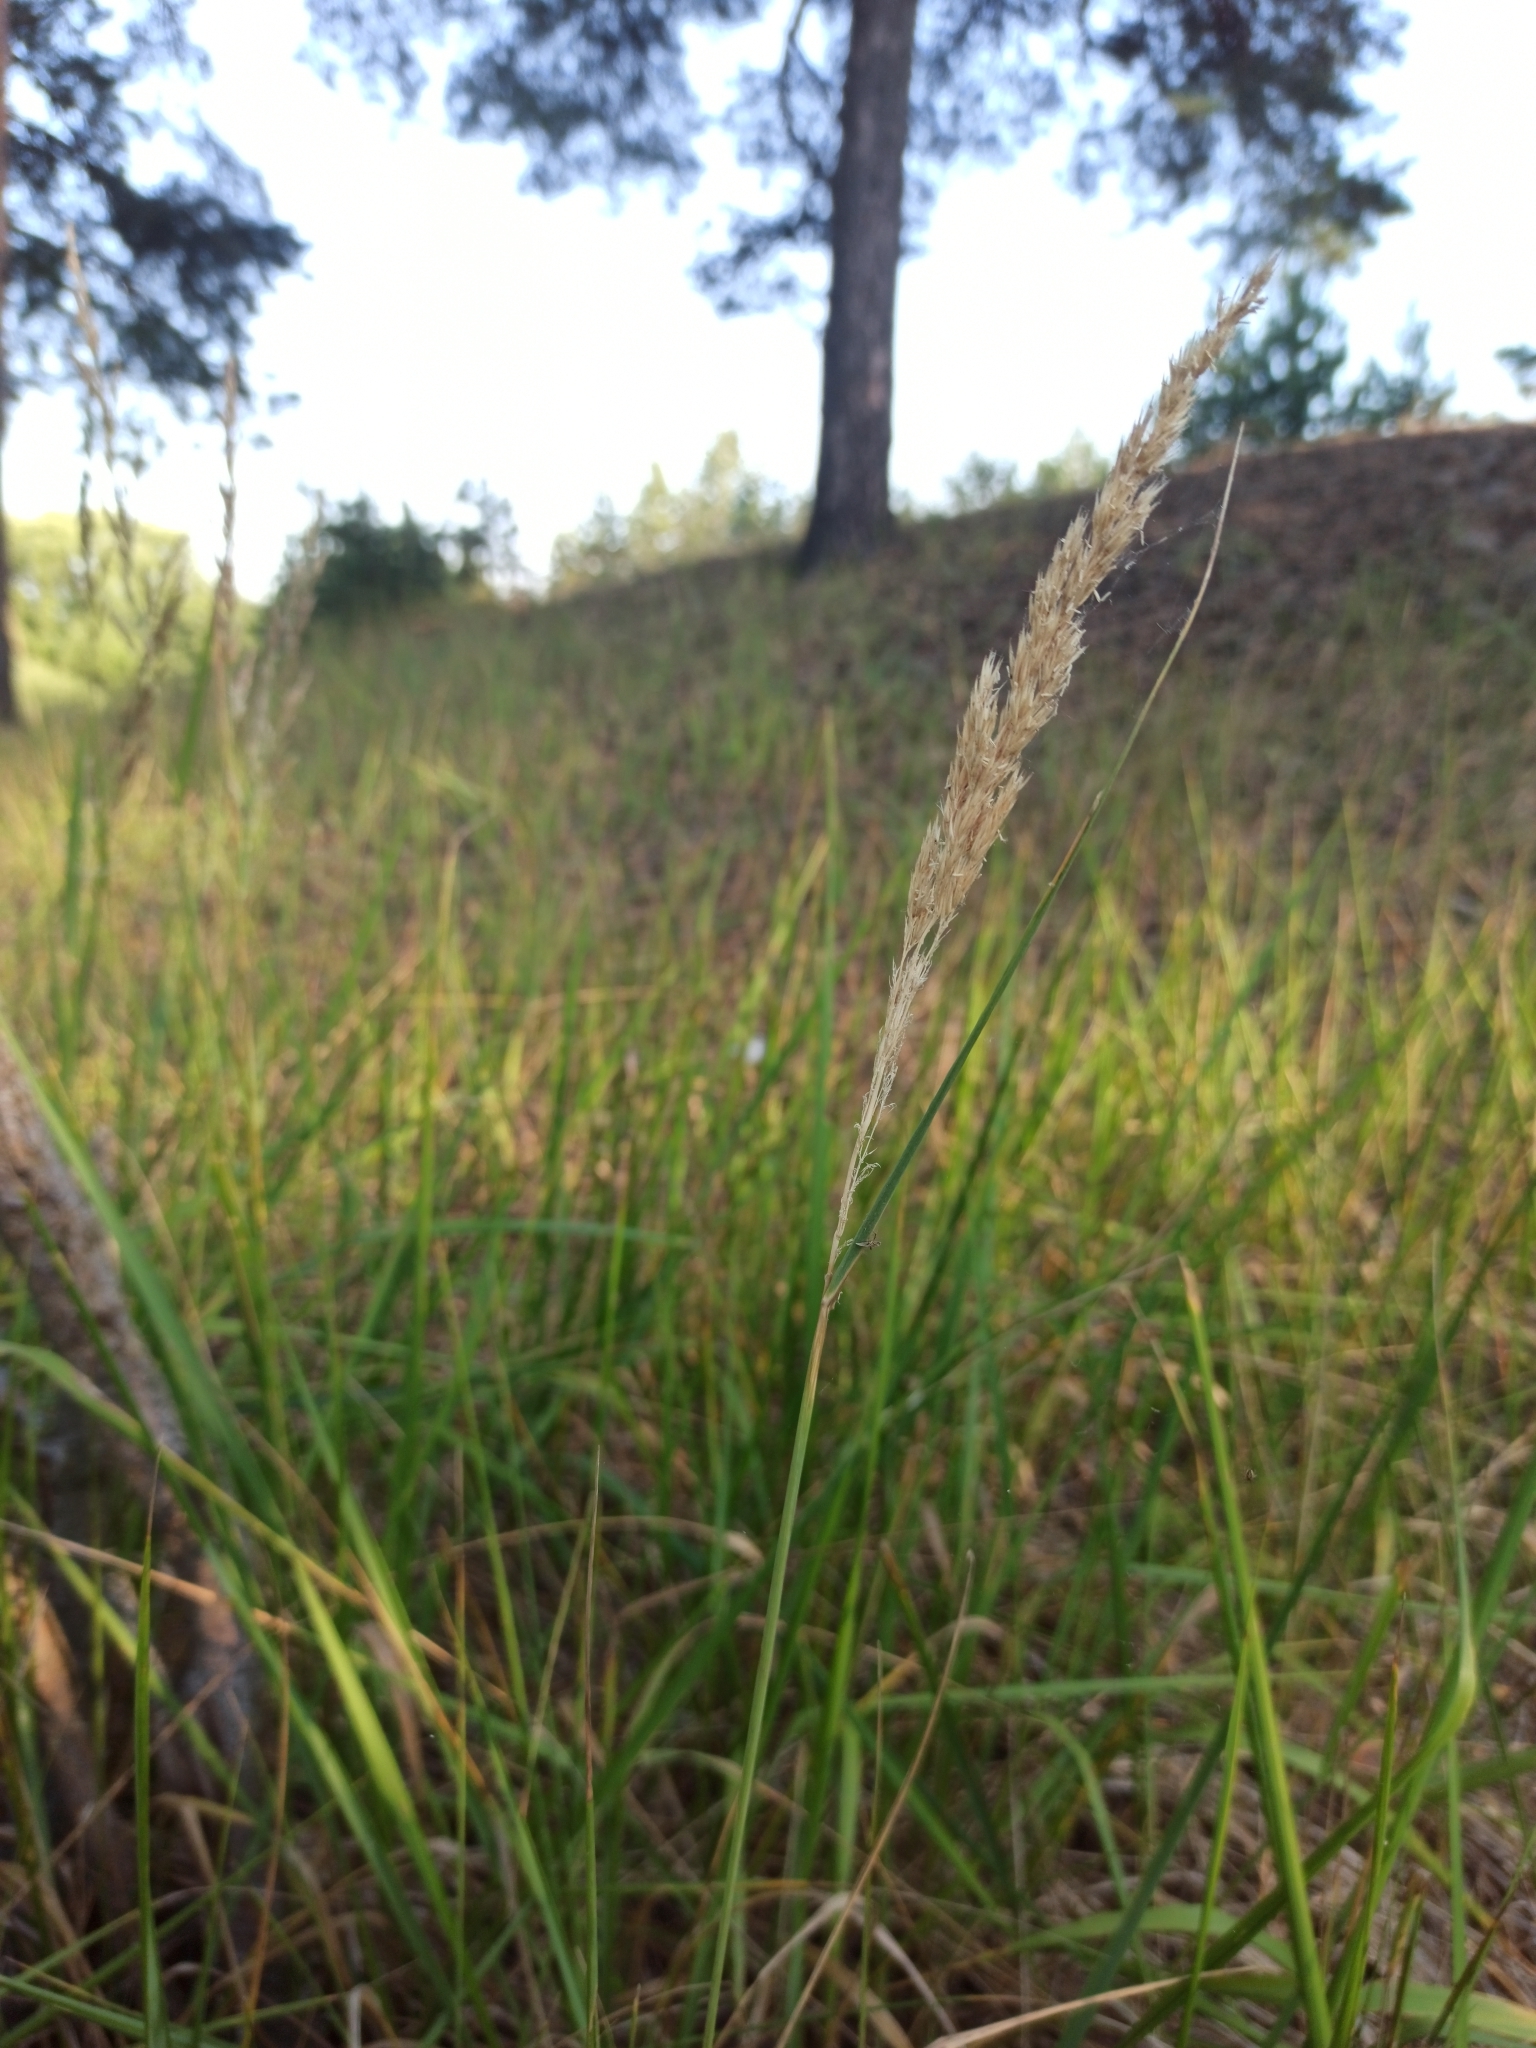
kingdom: Plantae
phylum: Tracheophyta
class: Liliopsida
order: Poales
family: Poaceae
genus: Calamagrostis
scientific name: Calamagrostis epigejos
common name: Wood small-reed
